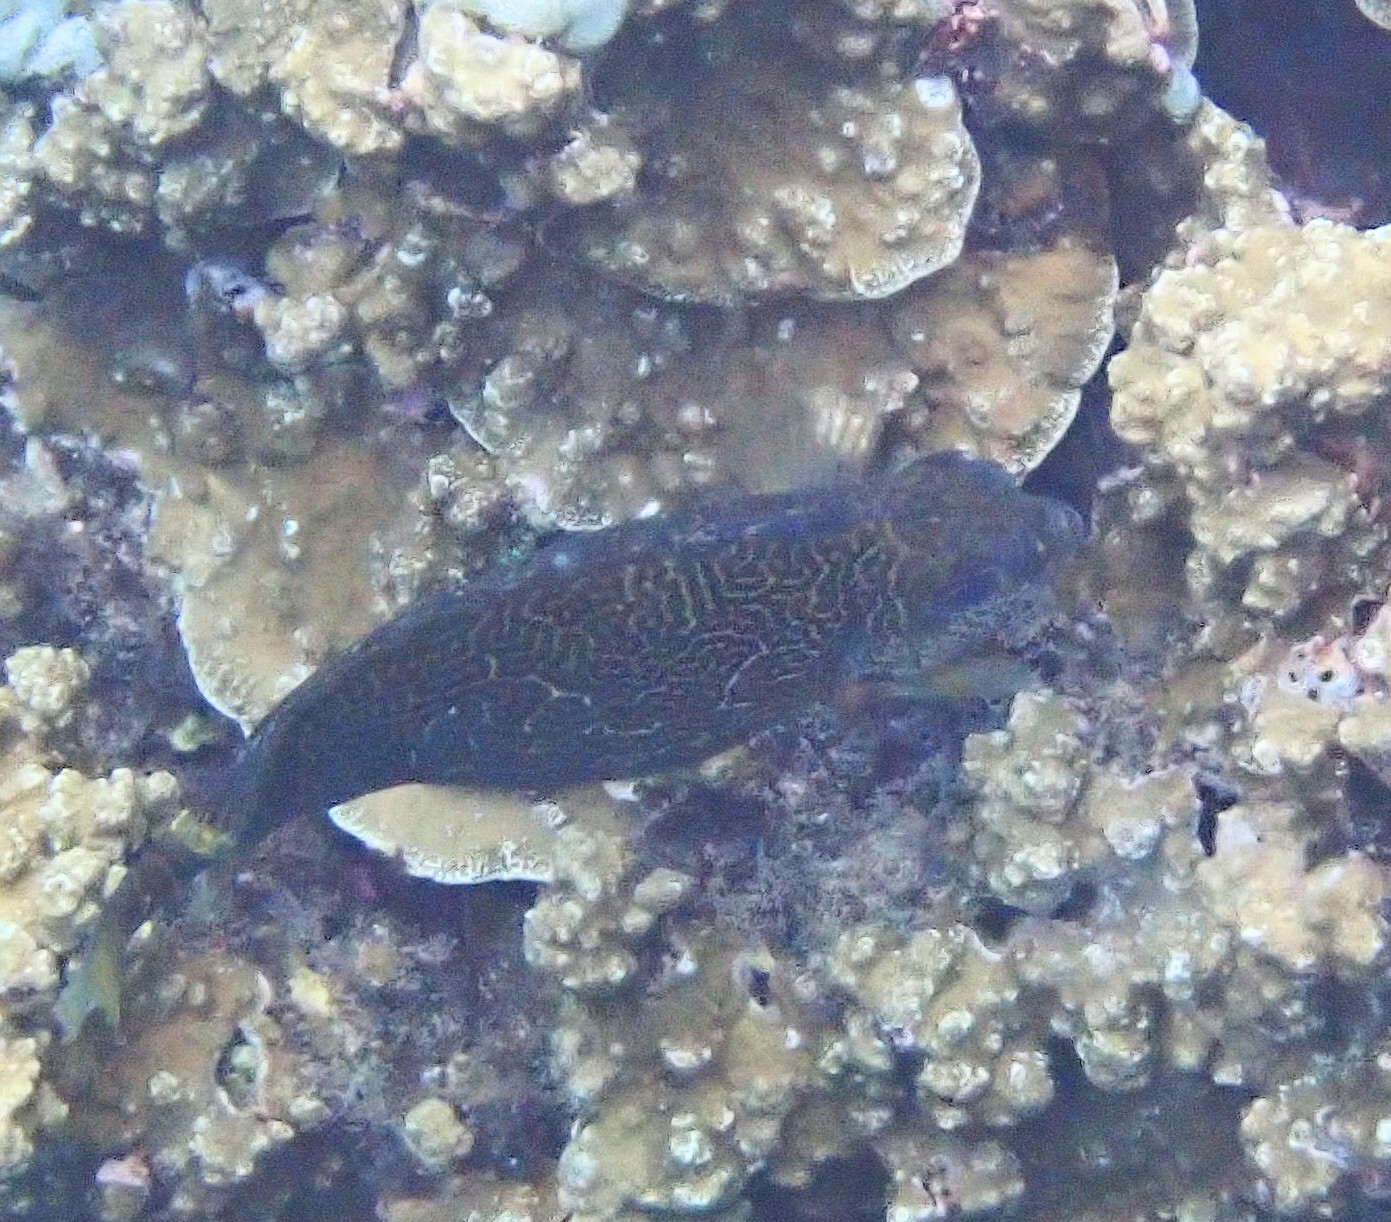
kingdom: Animalia
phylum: Chordata
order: Perciformes
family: Siganidae
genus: Siganus
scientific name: Siganus spinus
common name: Scribbled rabbitfish
